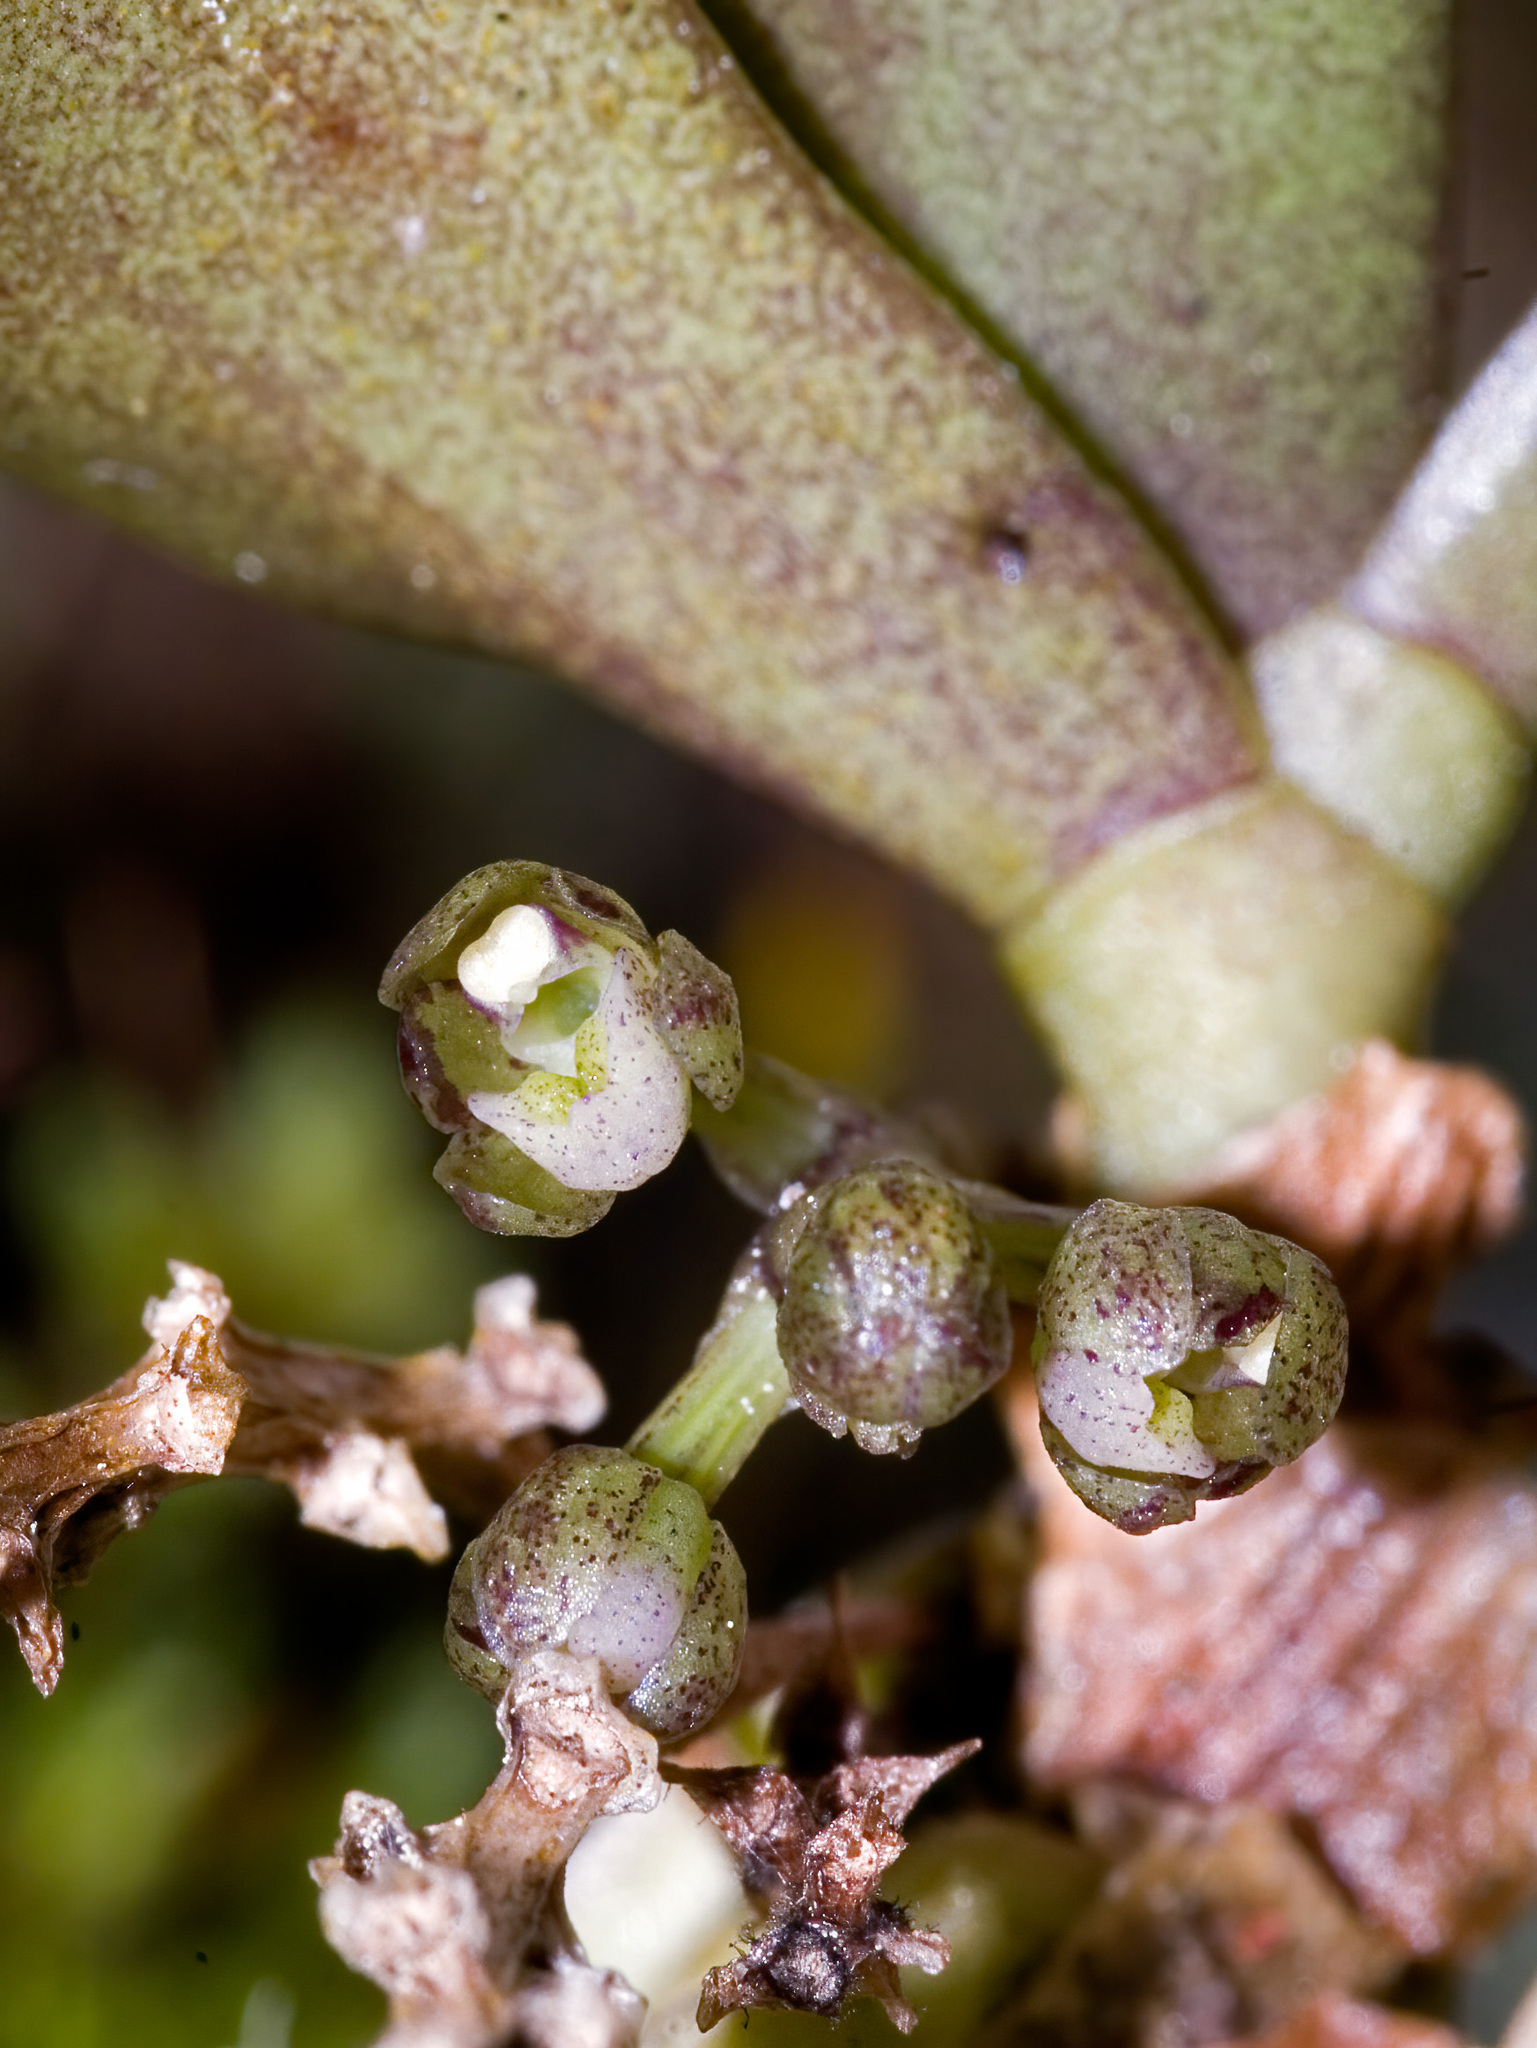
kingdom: Plantae
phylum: Tracheophyta
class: Liliopsida
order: Asparagales
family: Orchidaceae
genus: Drymoanthus
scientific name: Drymoanthus adversus
